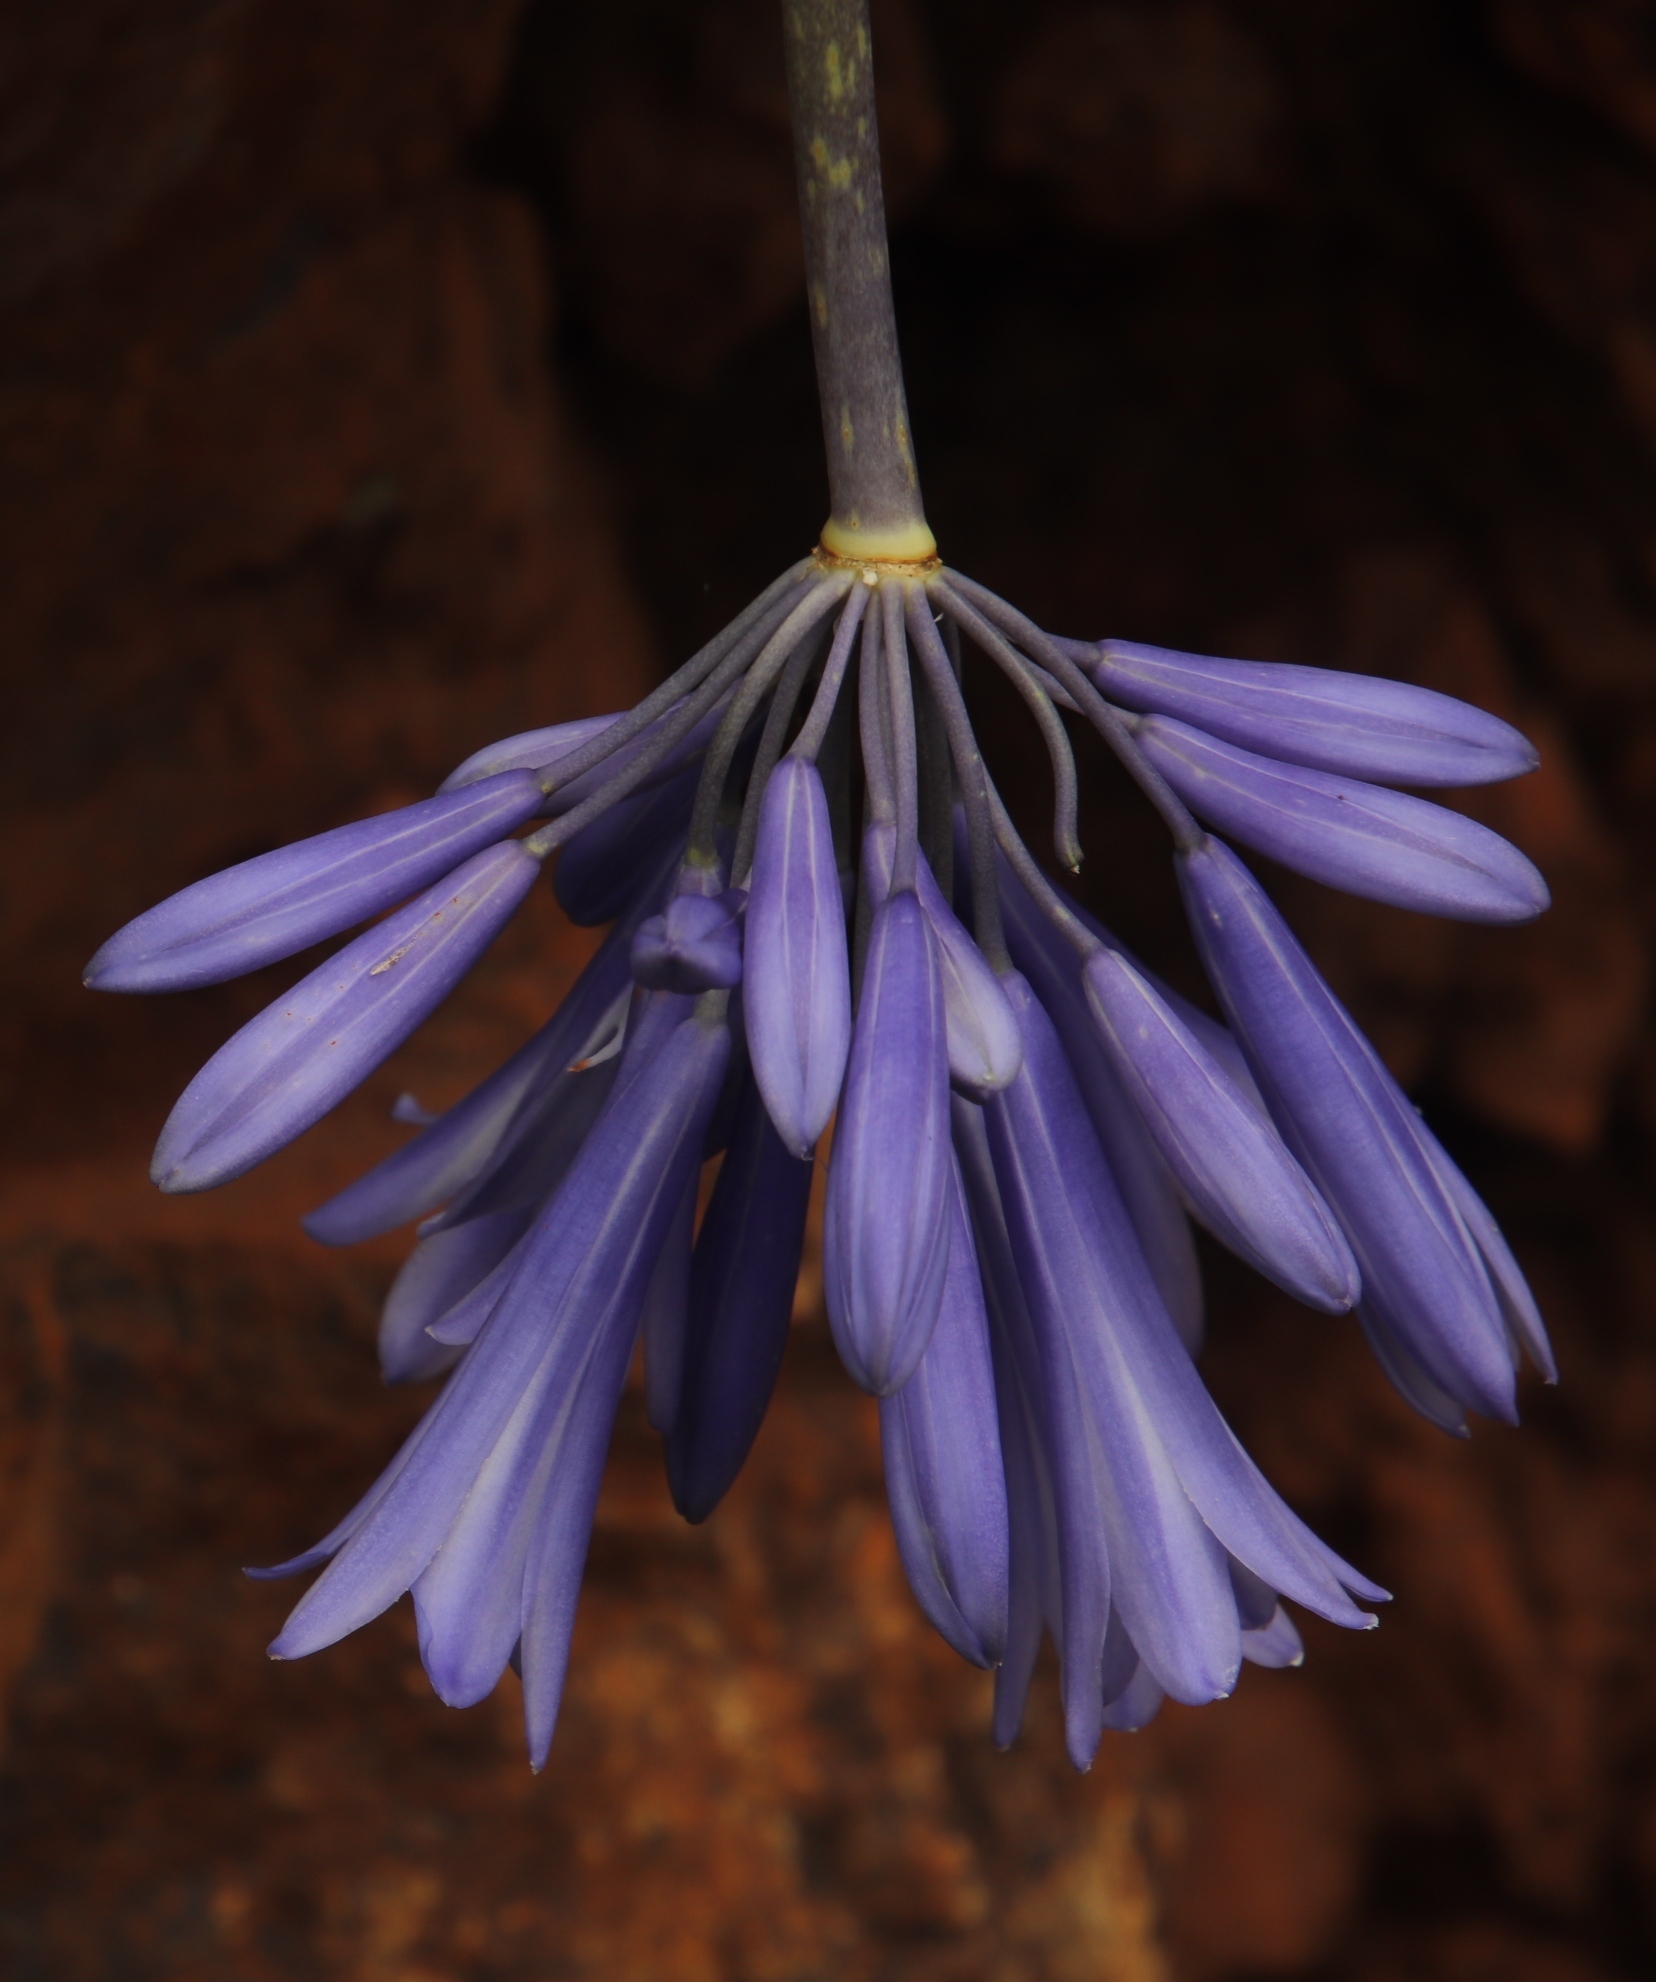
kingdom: Plantae
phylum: Tracheophyta
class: Liliopsida
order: Asparagales
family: Amaryllidaceae
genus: Agapanthus
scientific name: Agapanthus inapertus
